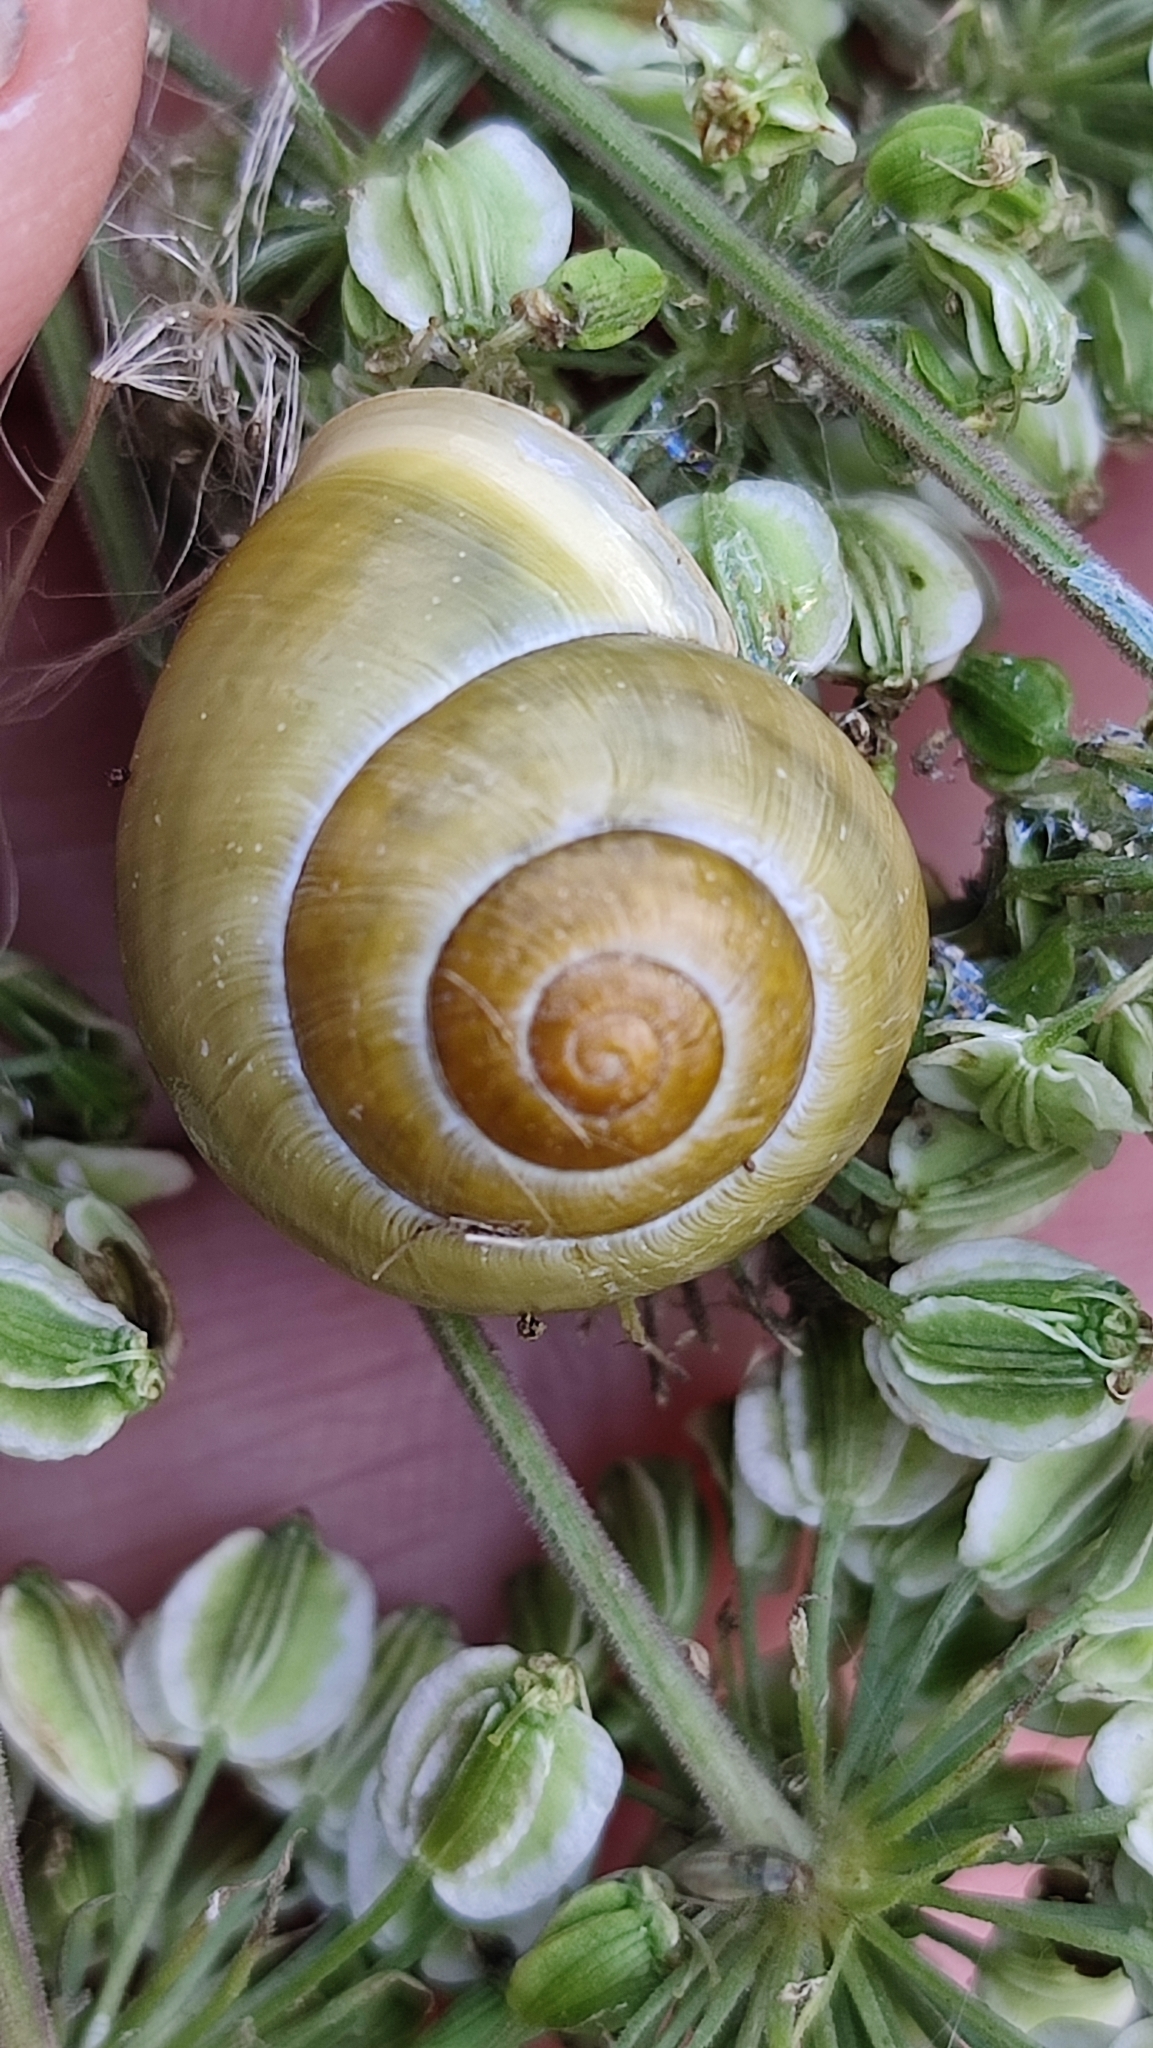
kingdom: Animalia
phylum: Mollusca
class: Gastropoda
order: Stylommatophora
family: Helicidae
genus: Cepaea
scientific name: Cepaea hortensis
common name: White-lip gardensnail
